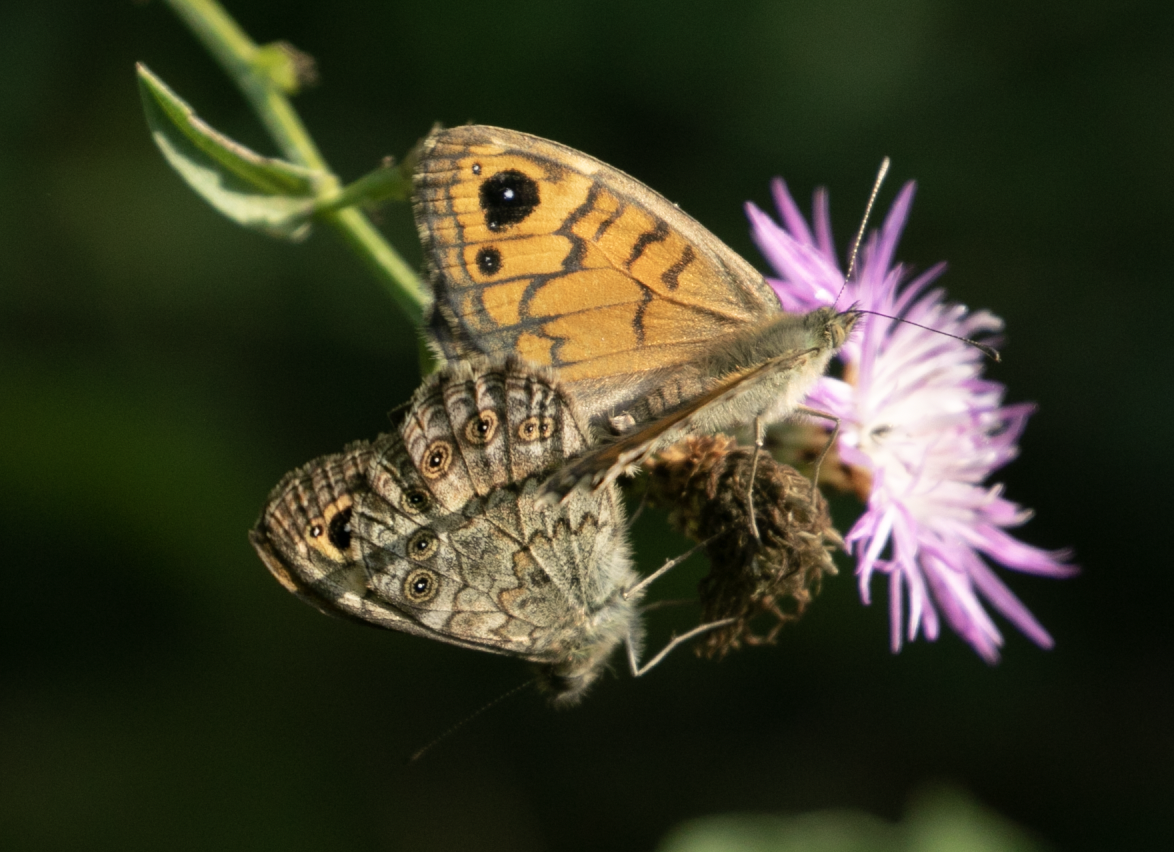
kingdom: Animalia
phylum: Arthropoda
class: Insecta
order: Lepidoptera
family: Nymphalidae
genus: Pararge
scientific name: Pararge Lasiommata megera
